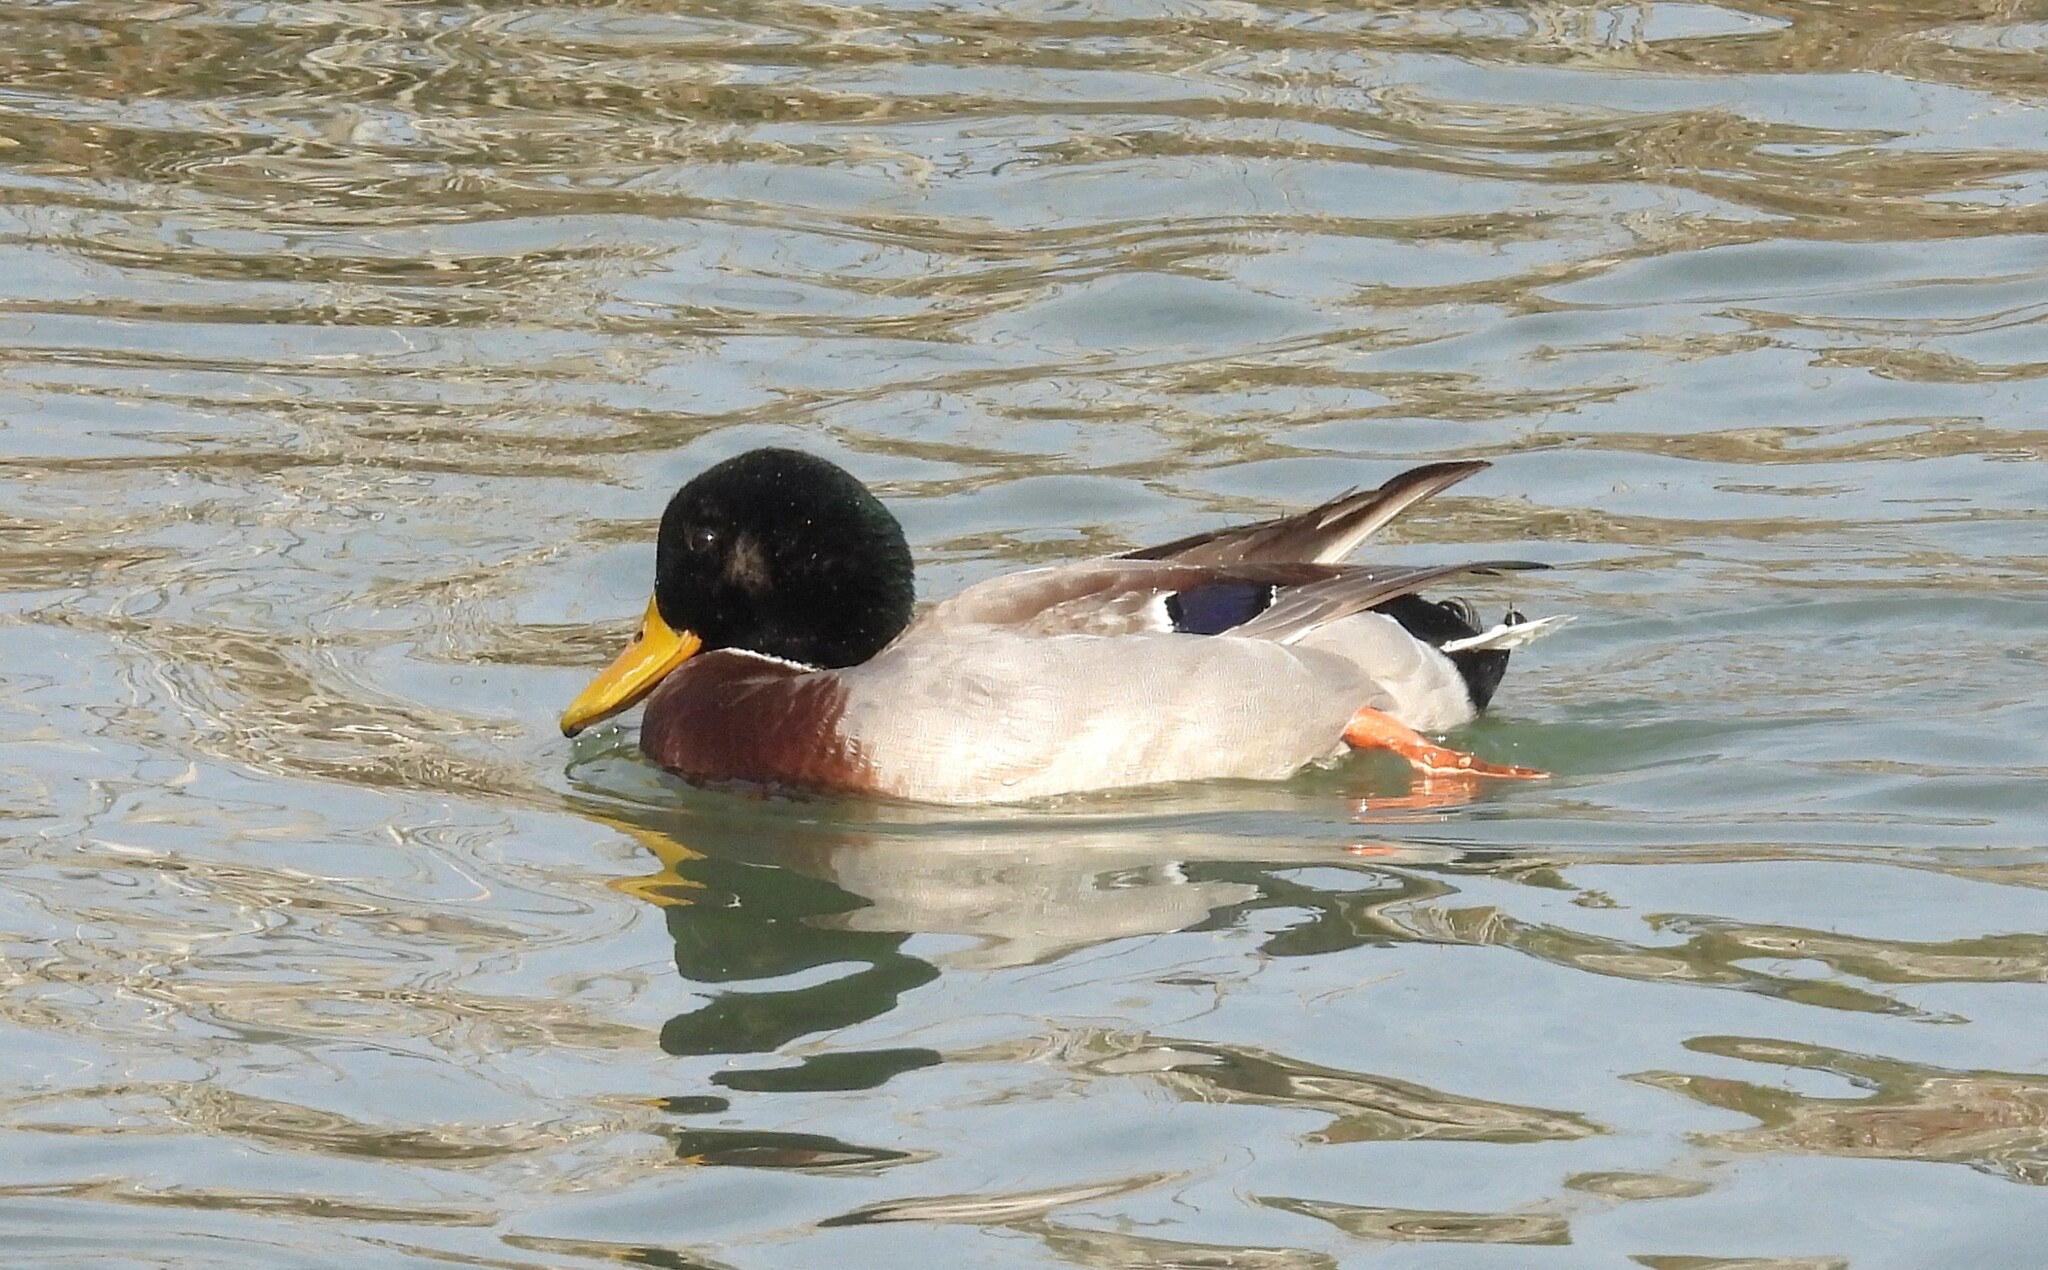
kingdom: Animalia
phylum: Chordata
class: Aves
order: Anseriformes
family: Anatidae
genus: Anas
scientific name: Anas platyrhynchos
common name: Mallard
